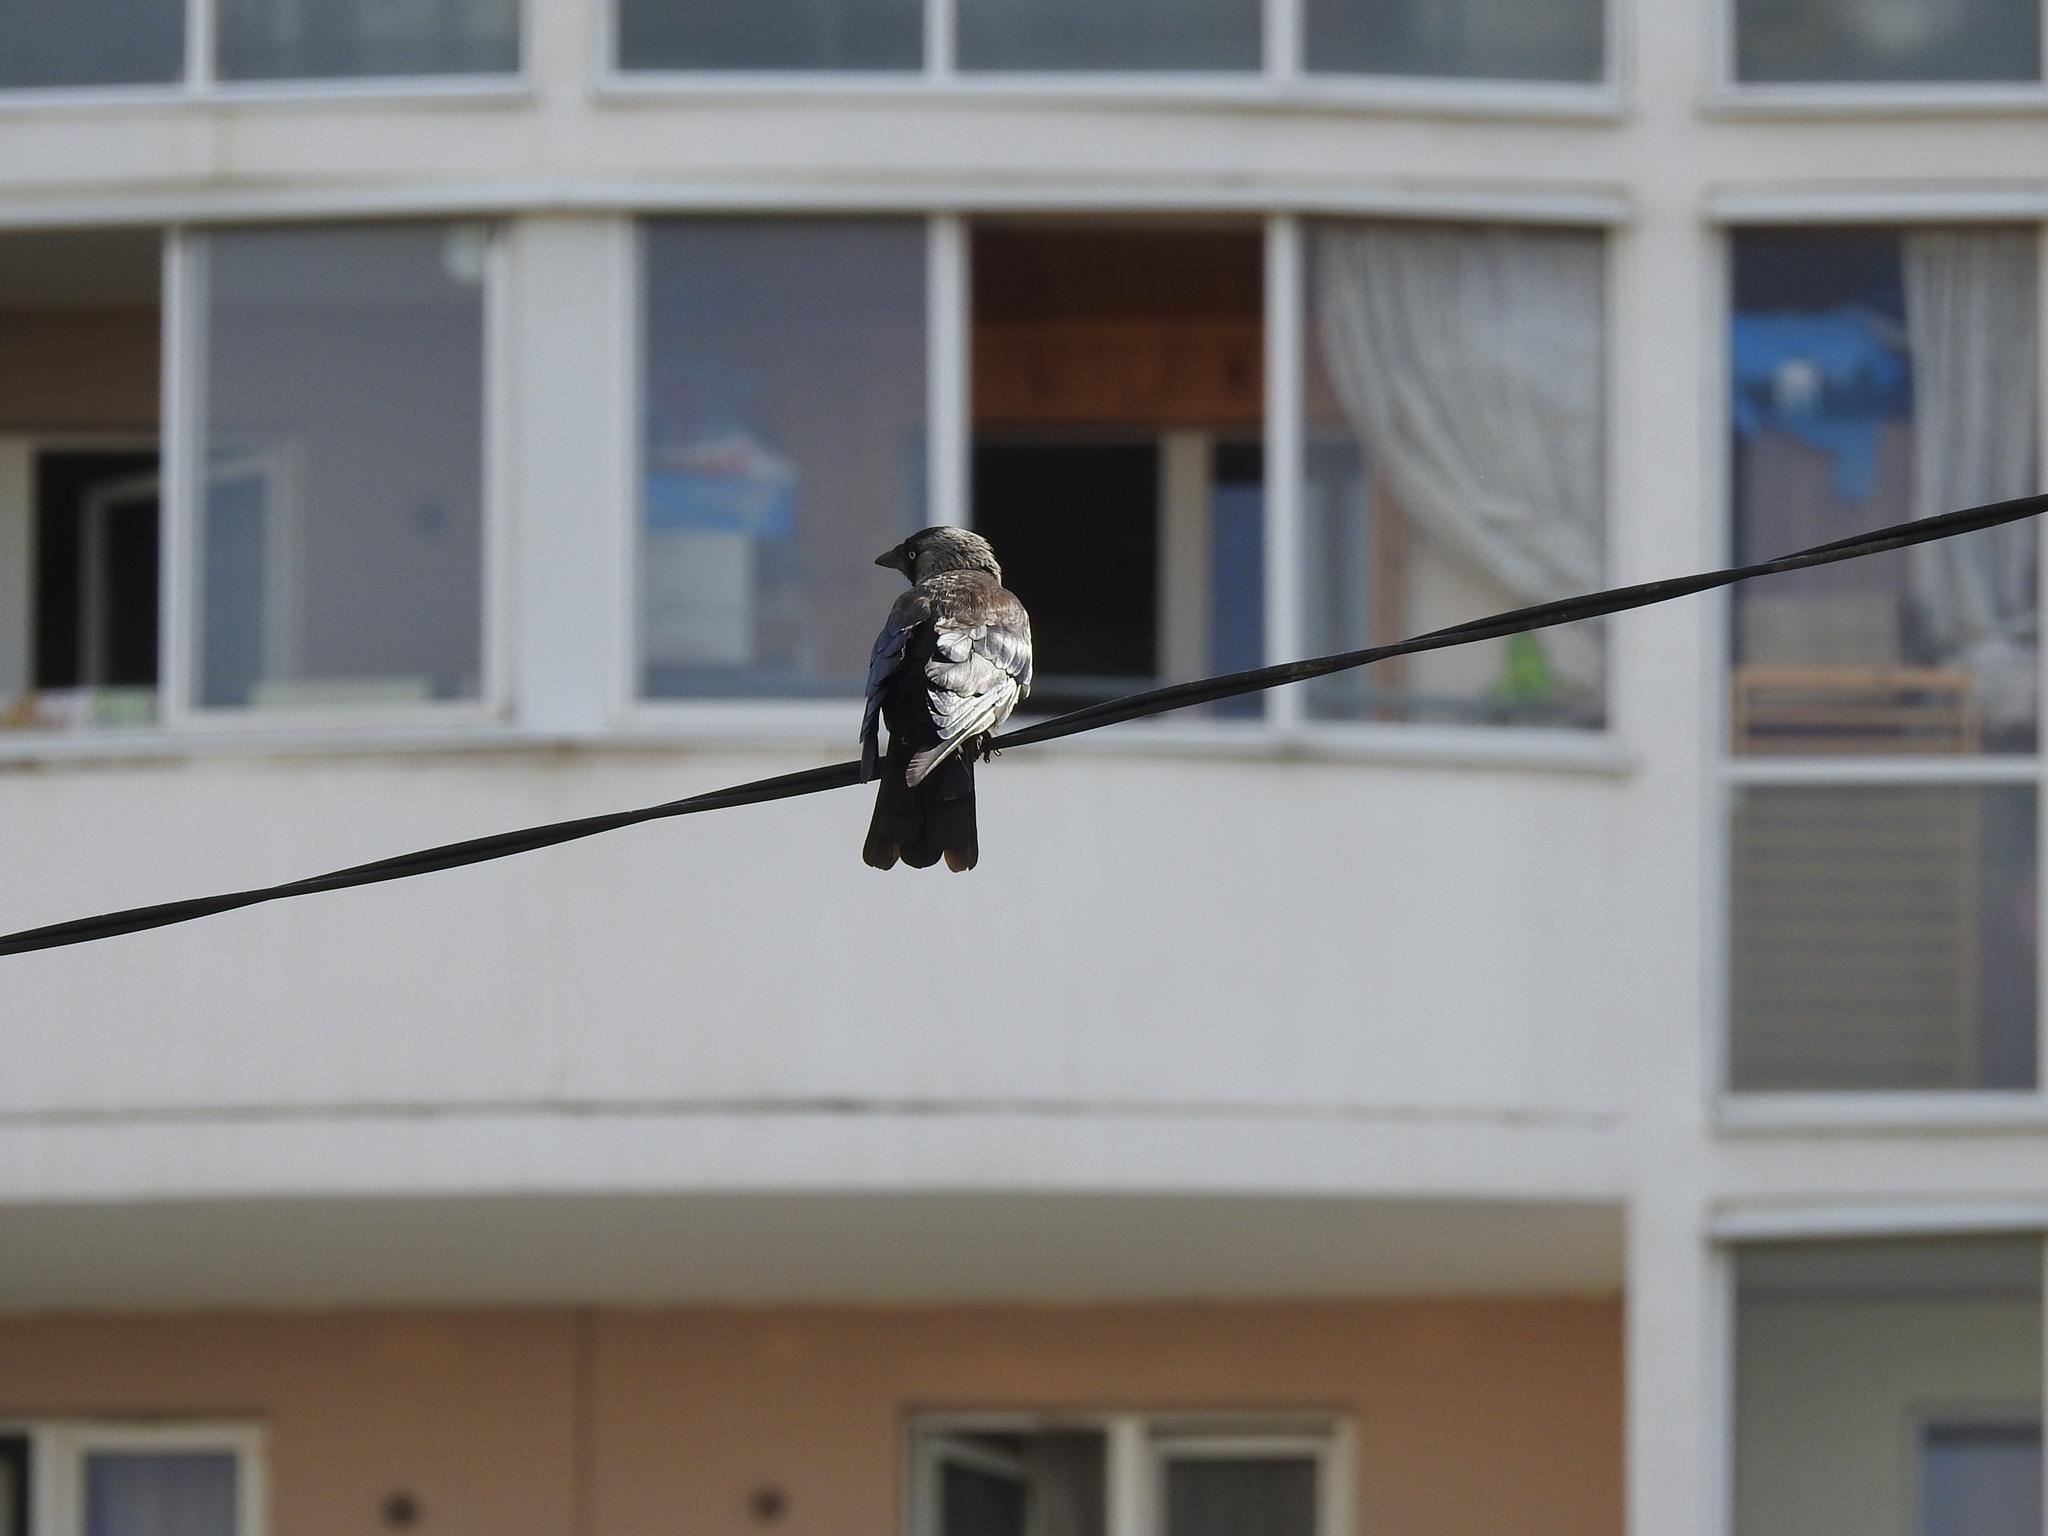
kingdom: Animalia
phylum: Chordata
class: Aves
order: Passeriformes
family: Corvidae
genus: Coloeus
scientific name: Coloeus monedula
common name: Western jackdaw
